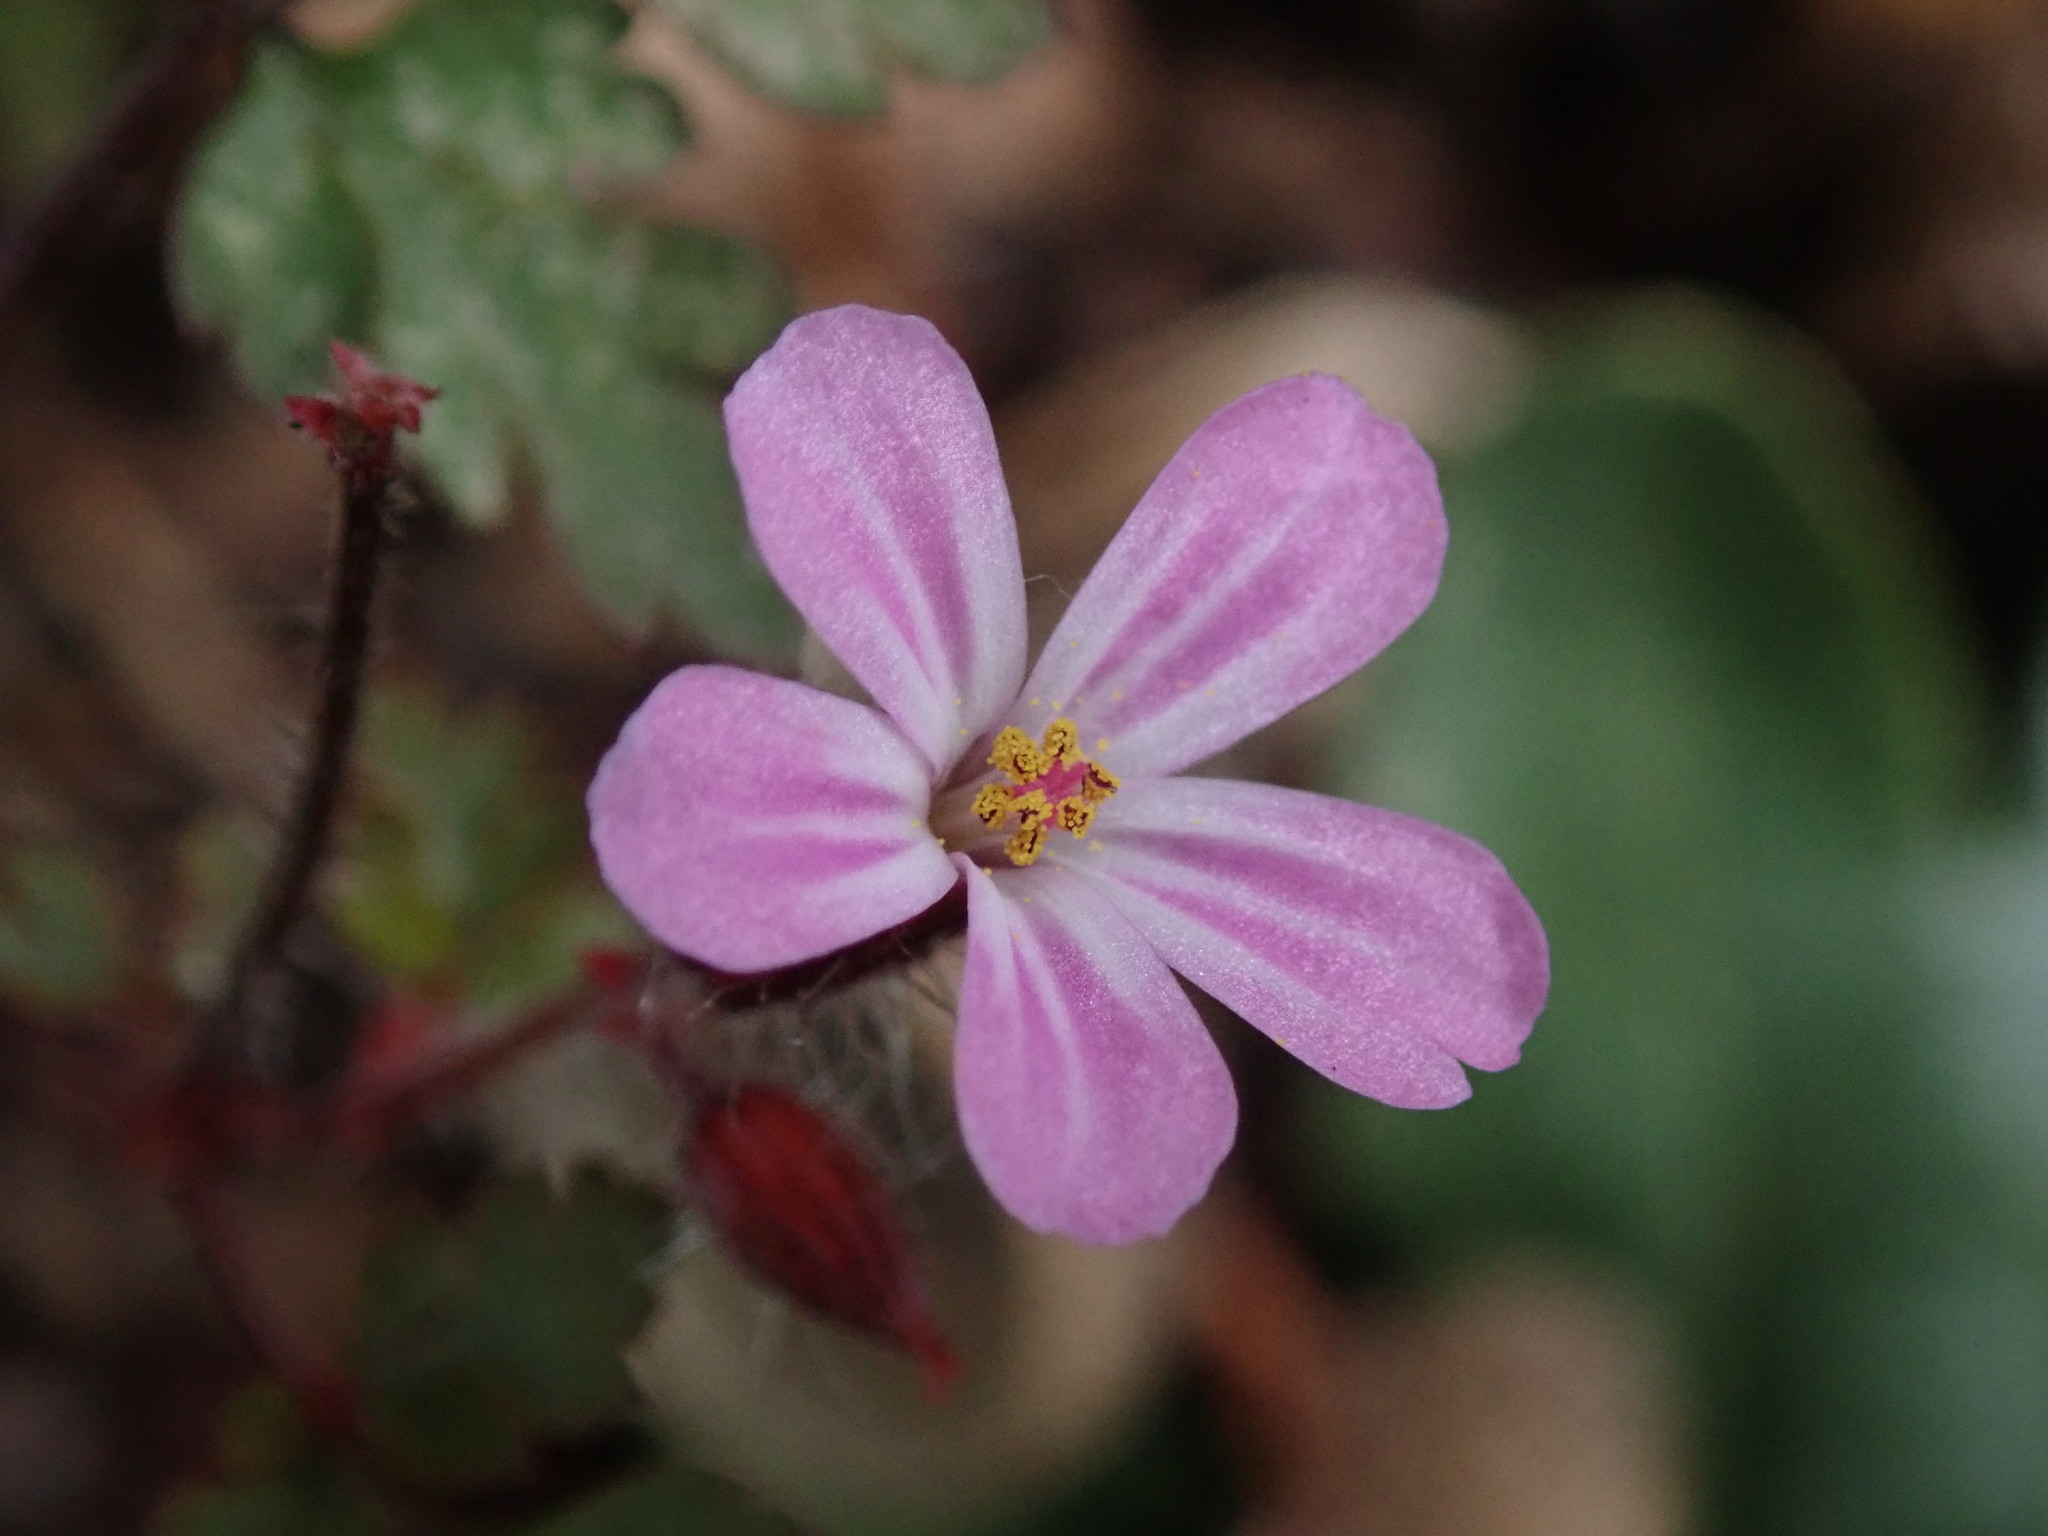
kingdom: Plantae
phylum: Tracheophyta
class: Magnoliopsida
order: Geraniales
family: Geraniaceae
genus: Geranium
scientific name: Geranium robertianum
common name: Herb-robert
